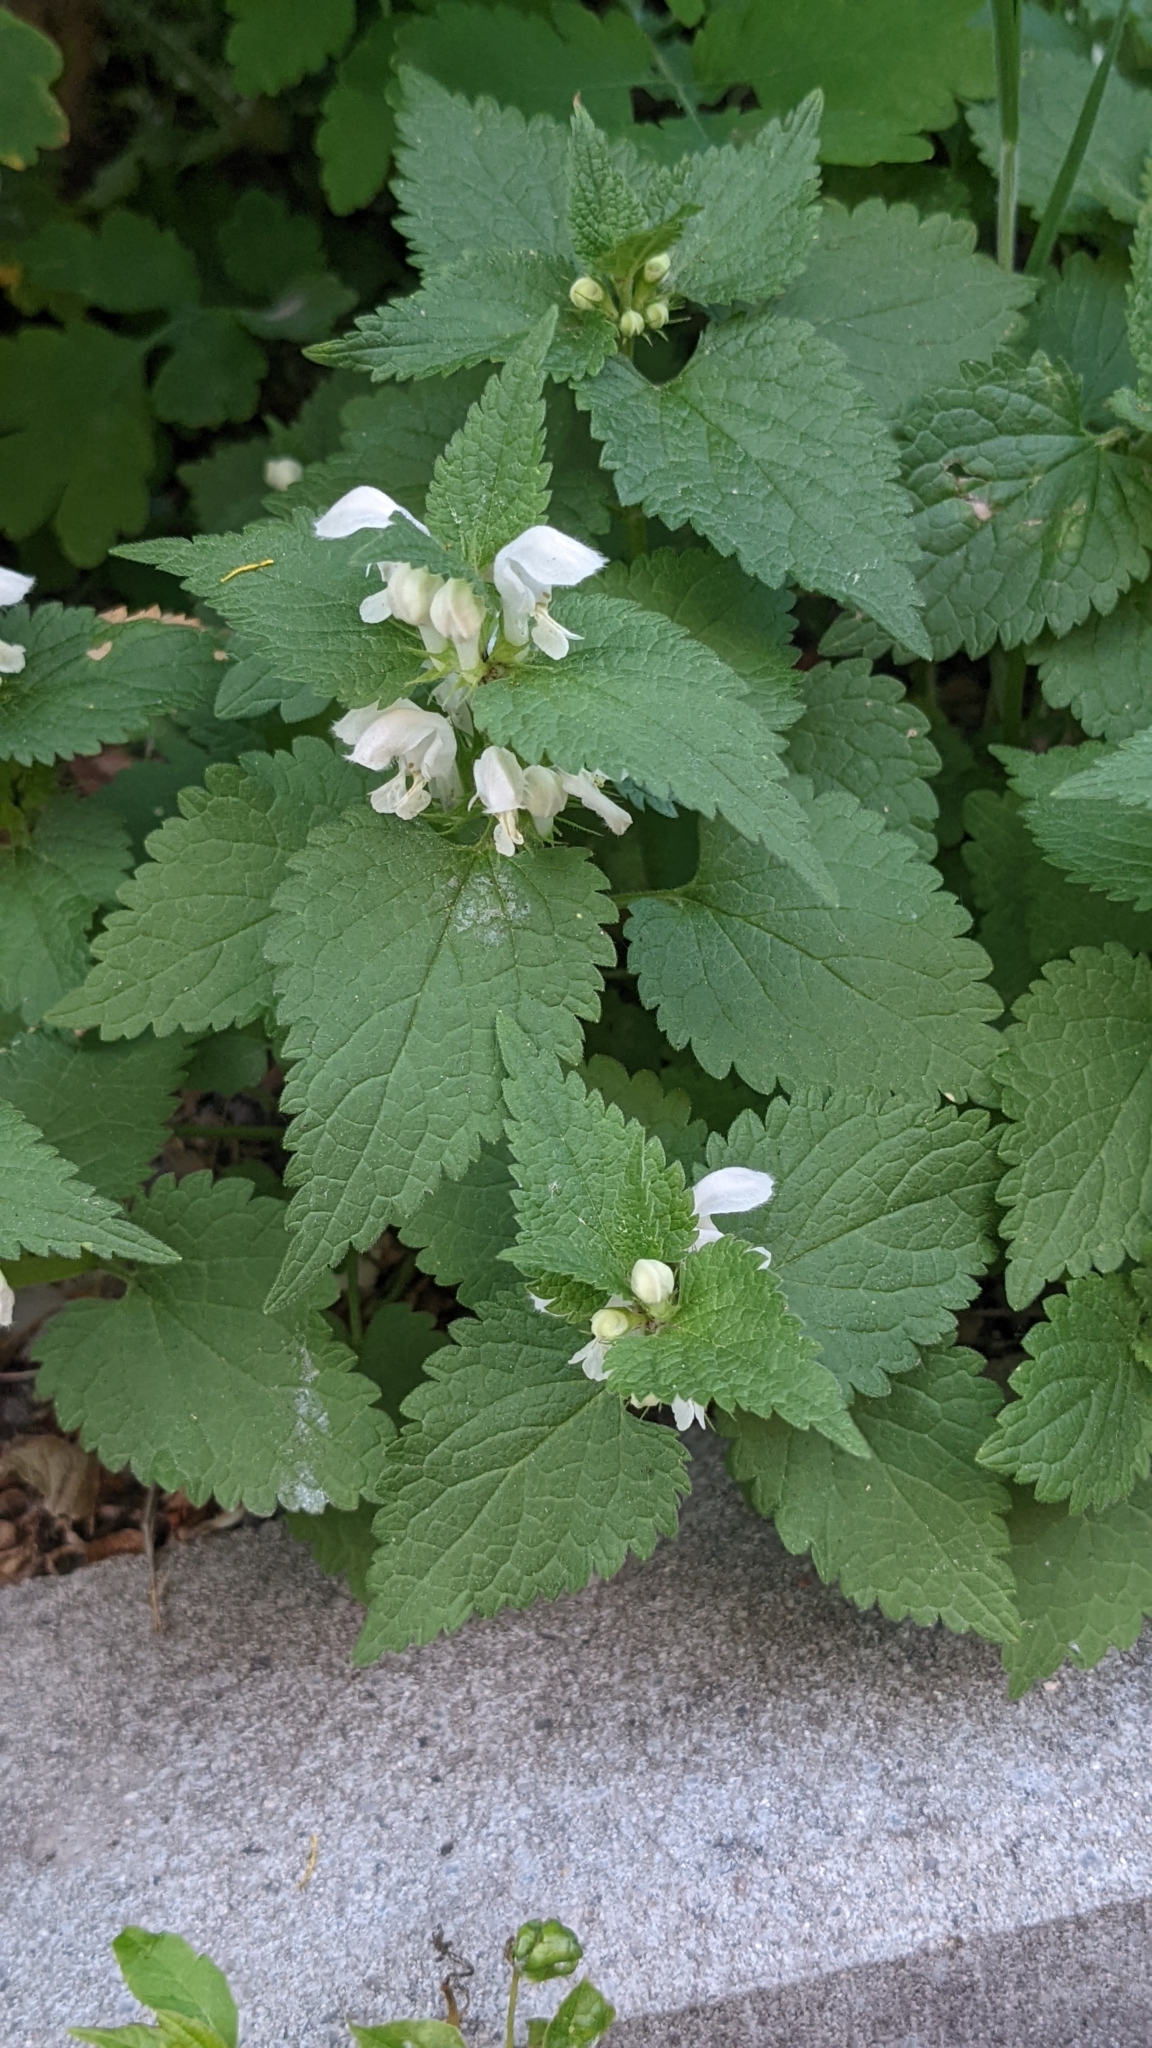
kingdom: Plantae
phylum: Tracheophyta
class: Magnoliopsida
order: Lamiales
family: Lamiaceae
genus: Lamium
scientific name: Lamium album
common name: White dead-nettle
